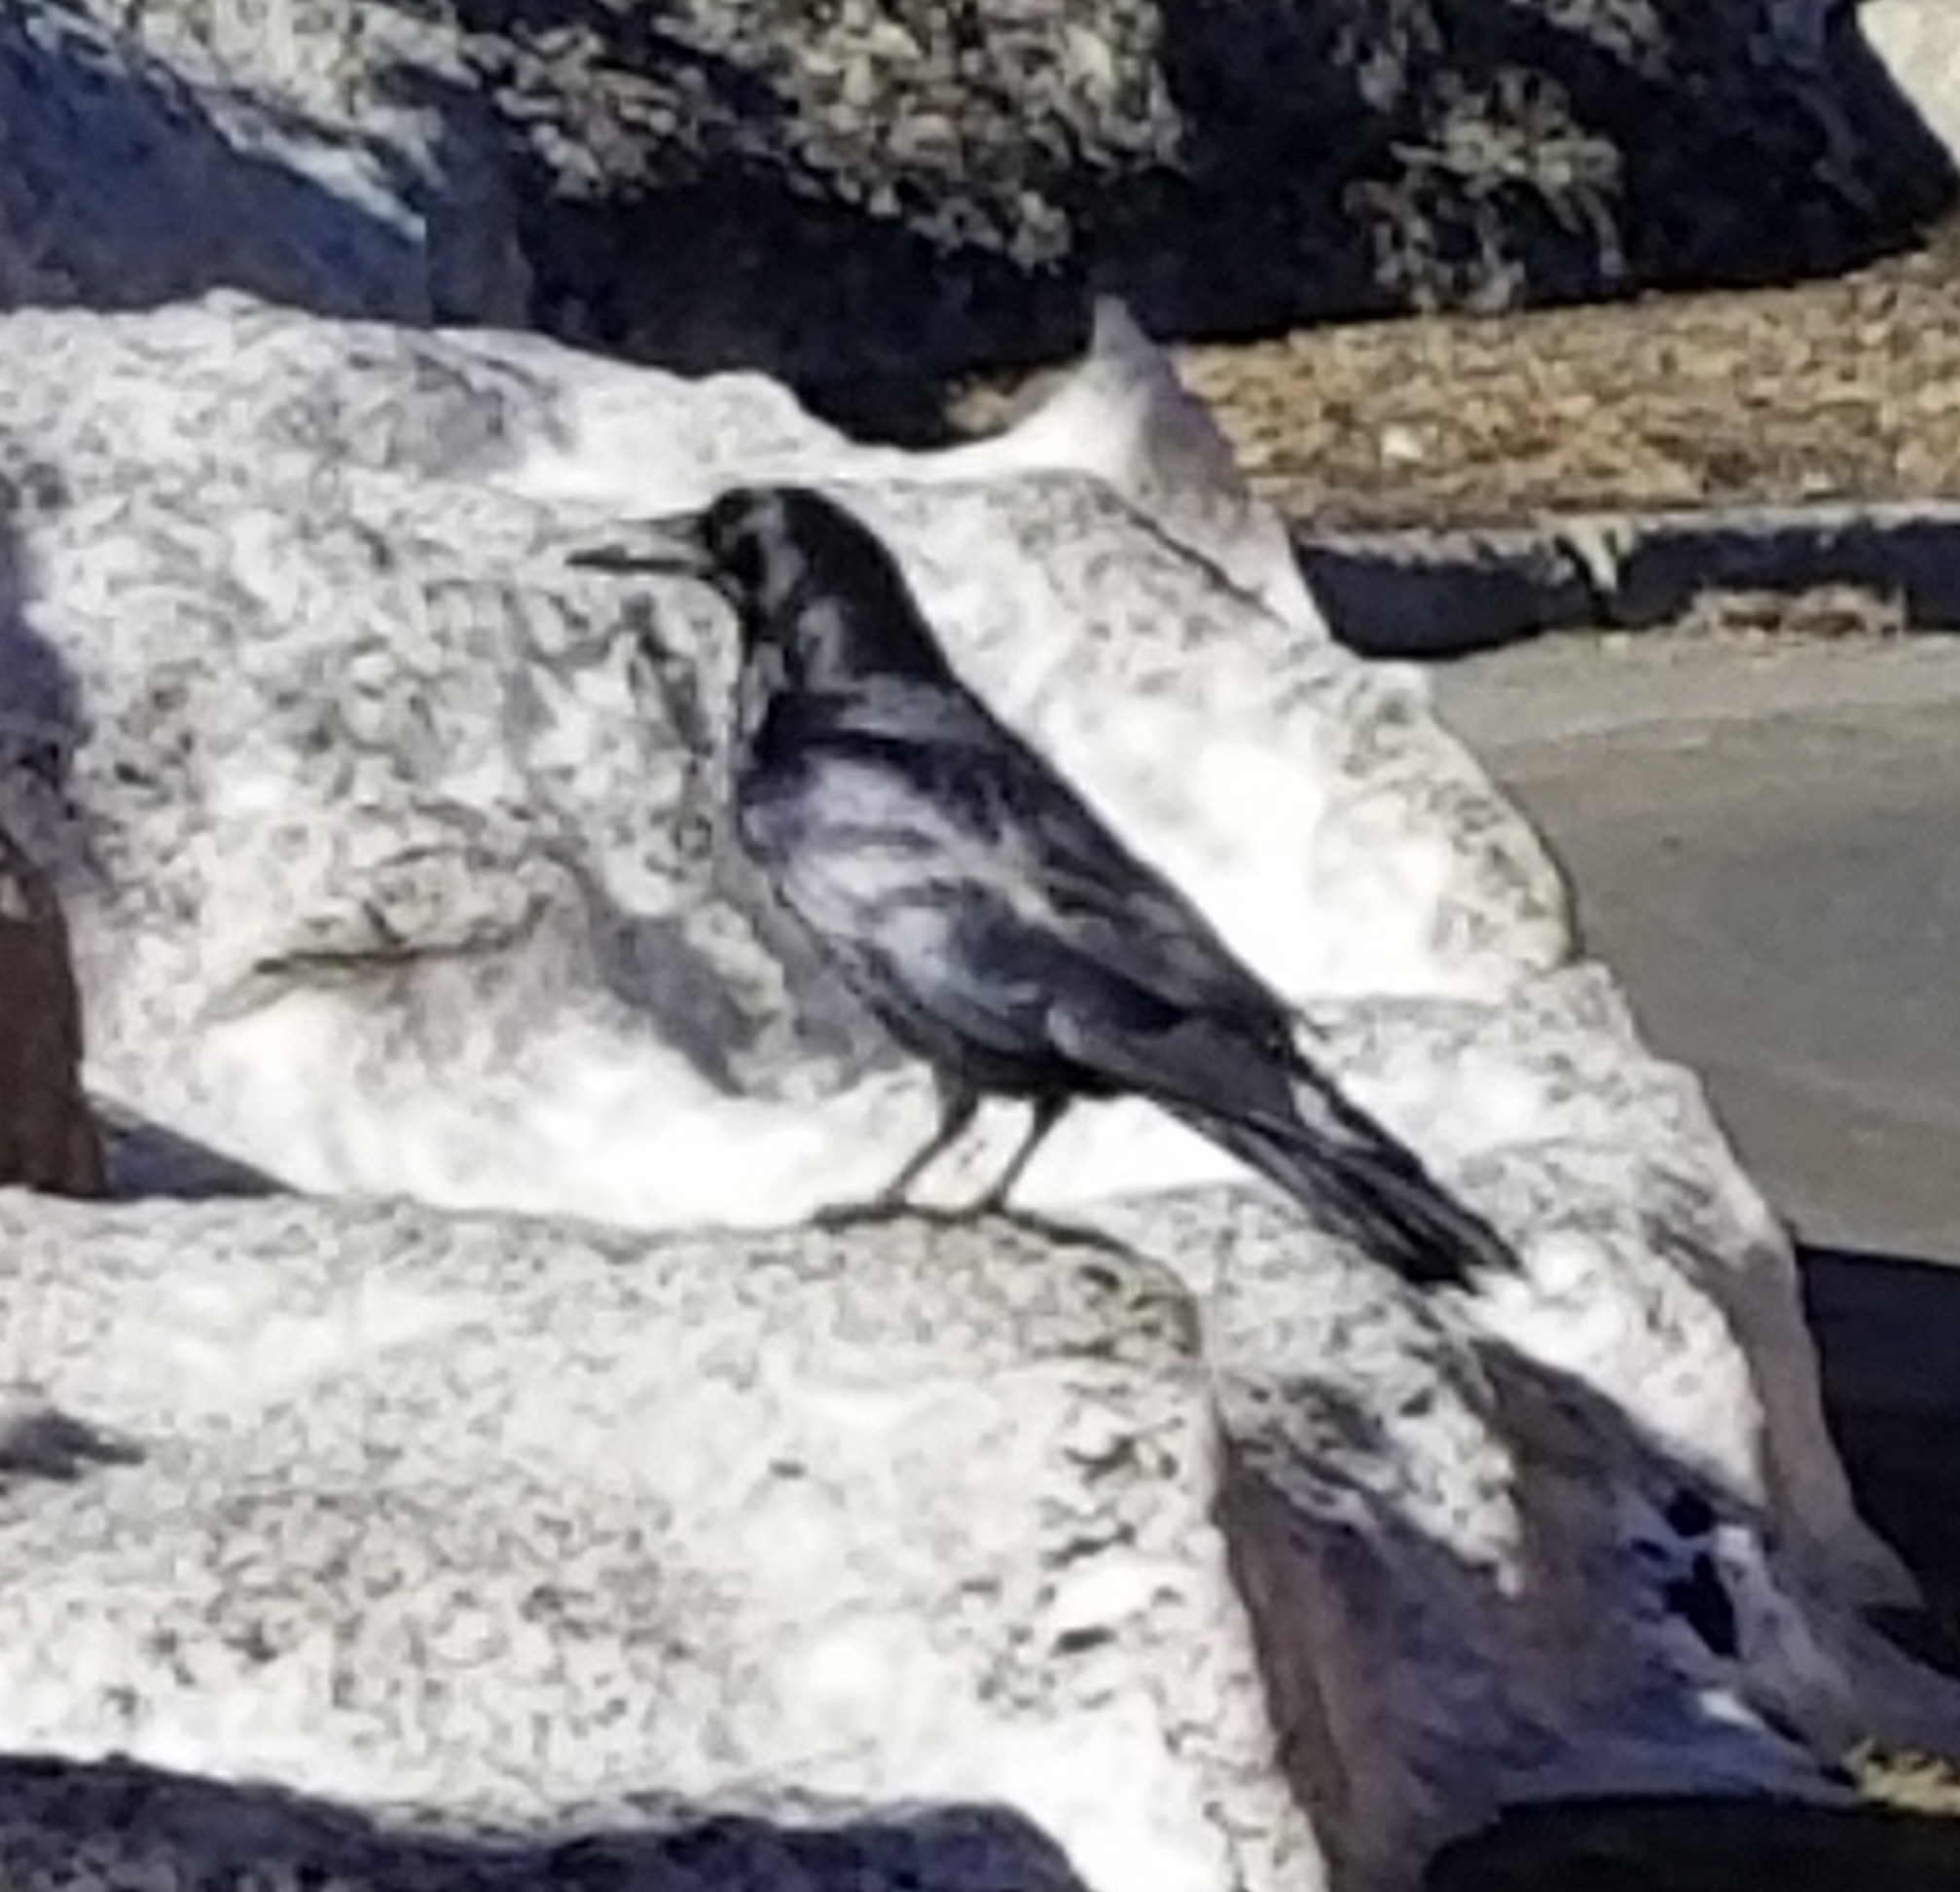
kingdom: Animalia
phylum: Chordata
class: Aves
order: Passeriformes
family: Corvidae
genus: Corvus
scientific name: Corvus corax
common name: Common raven
